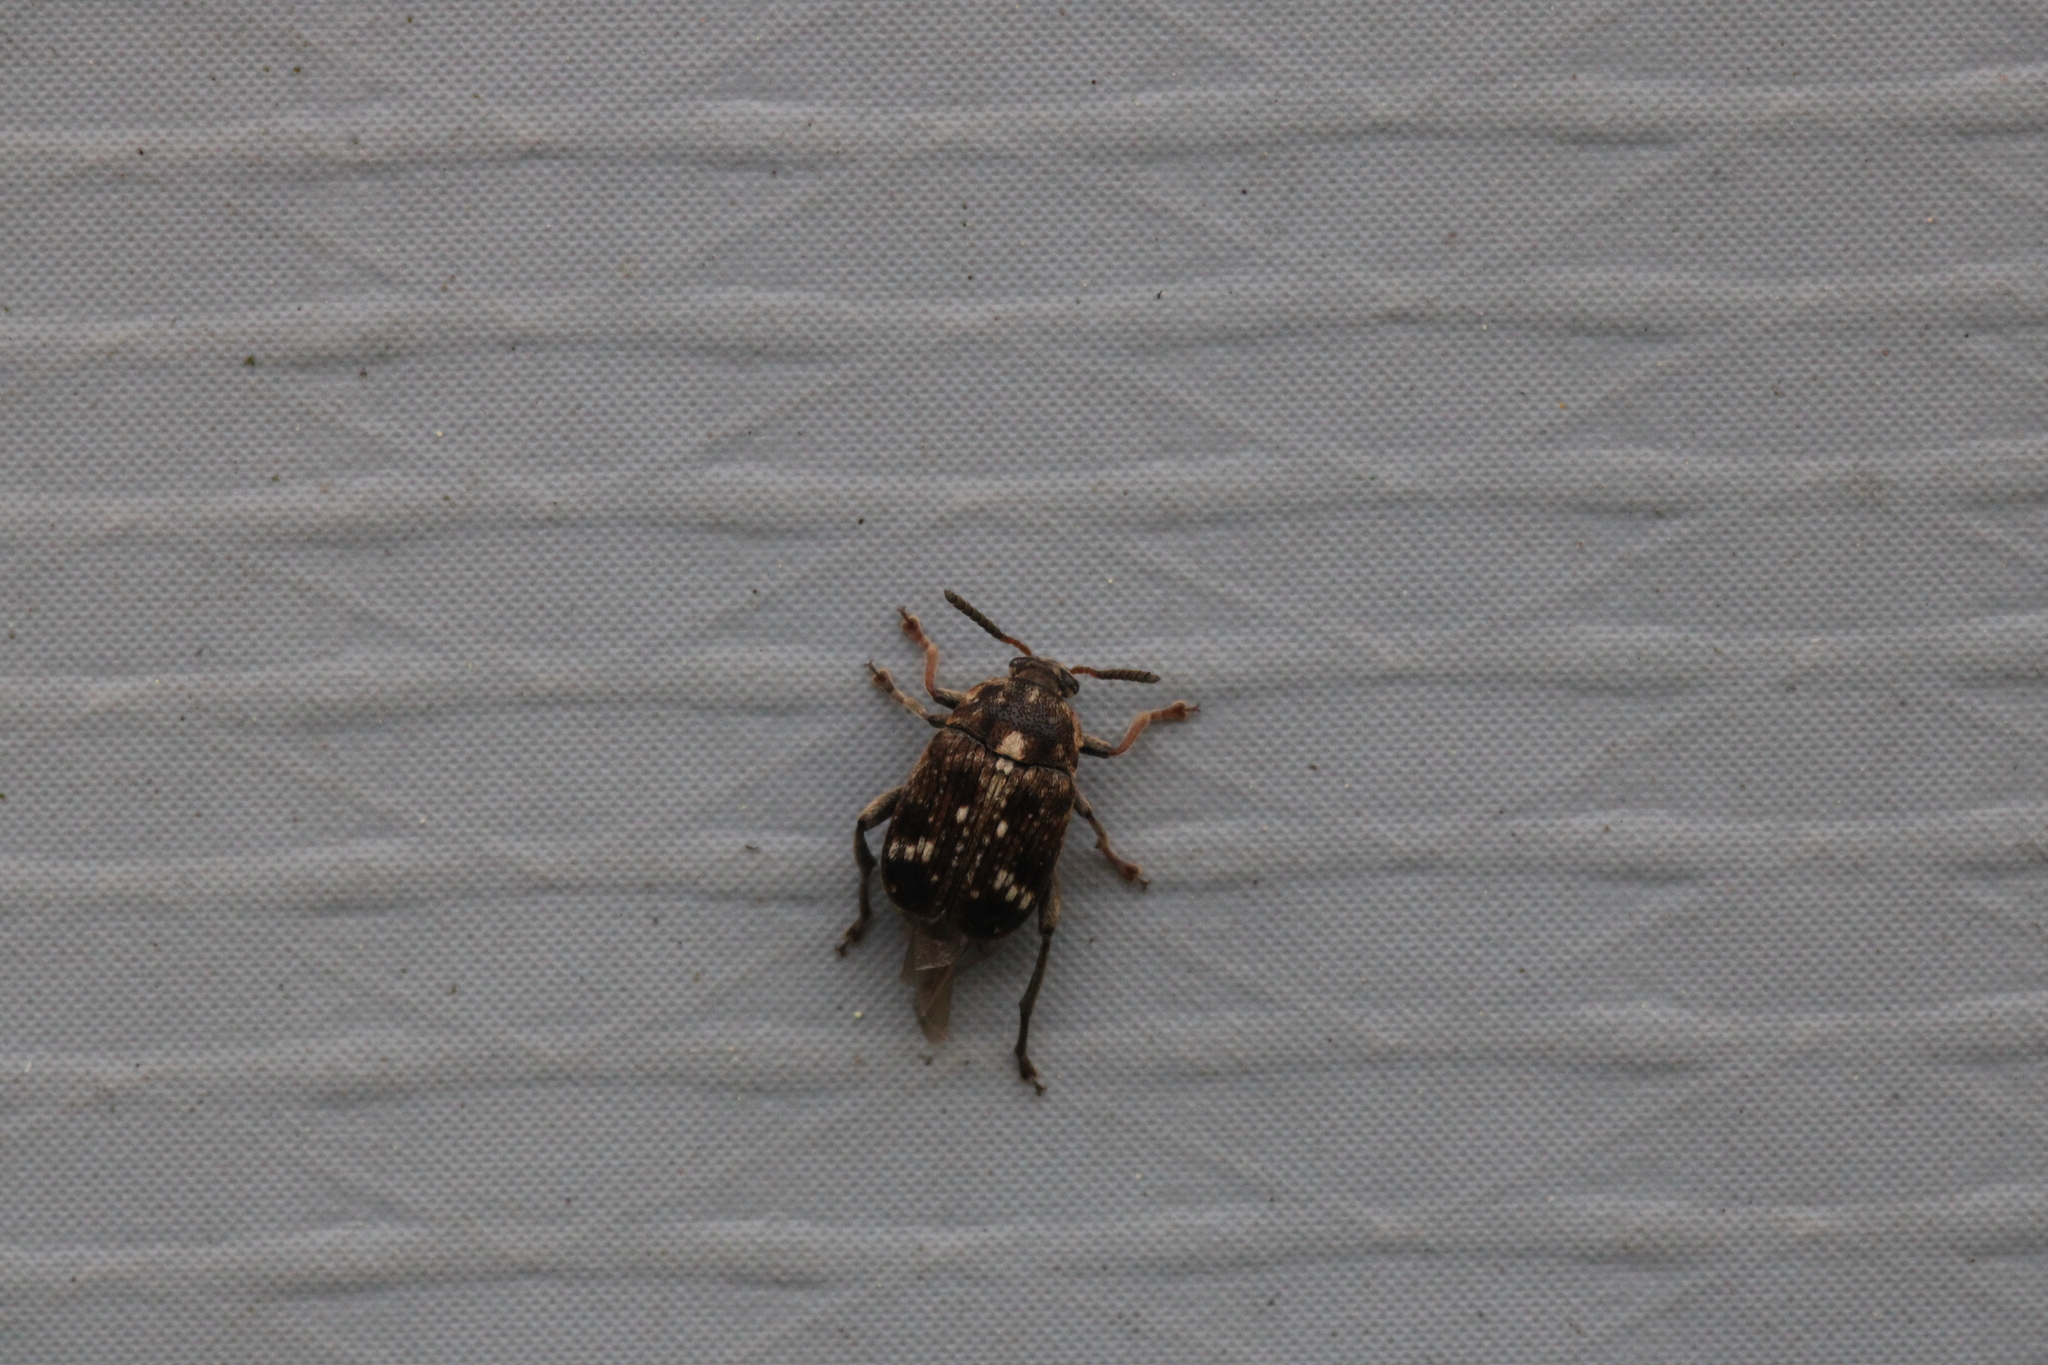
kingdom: Animalia
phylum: Arthropoda
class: Insecta
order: Coleoptera
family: Chrysomelidae
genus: Bruchus
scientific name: Bruchus pisorum
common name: Pea weevil
